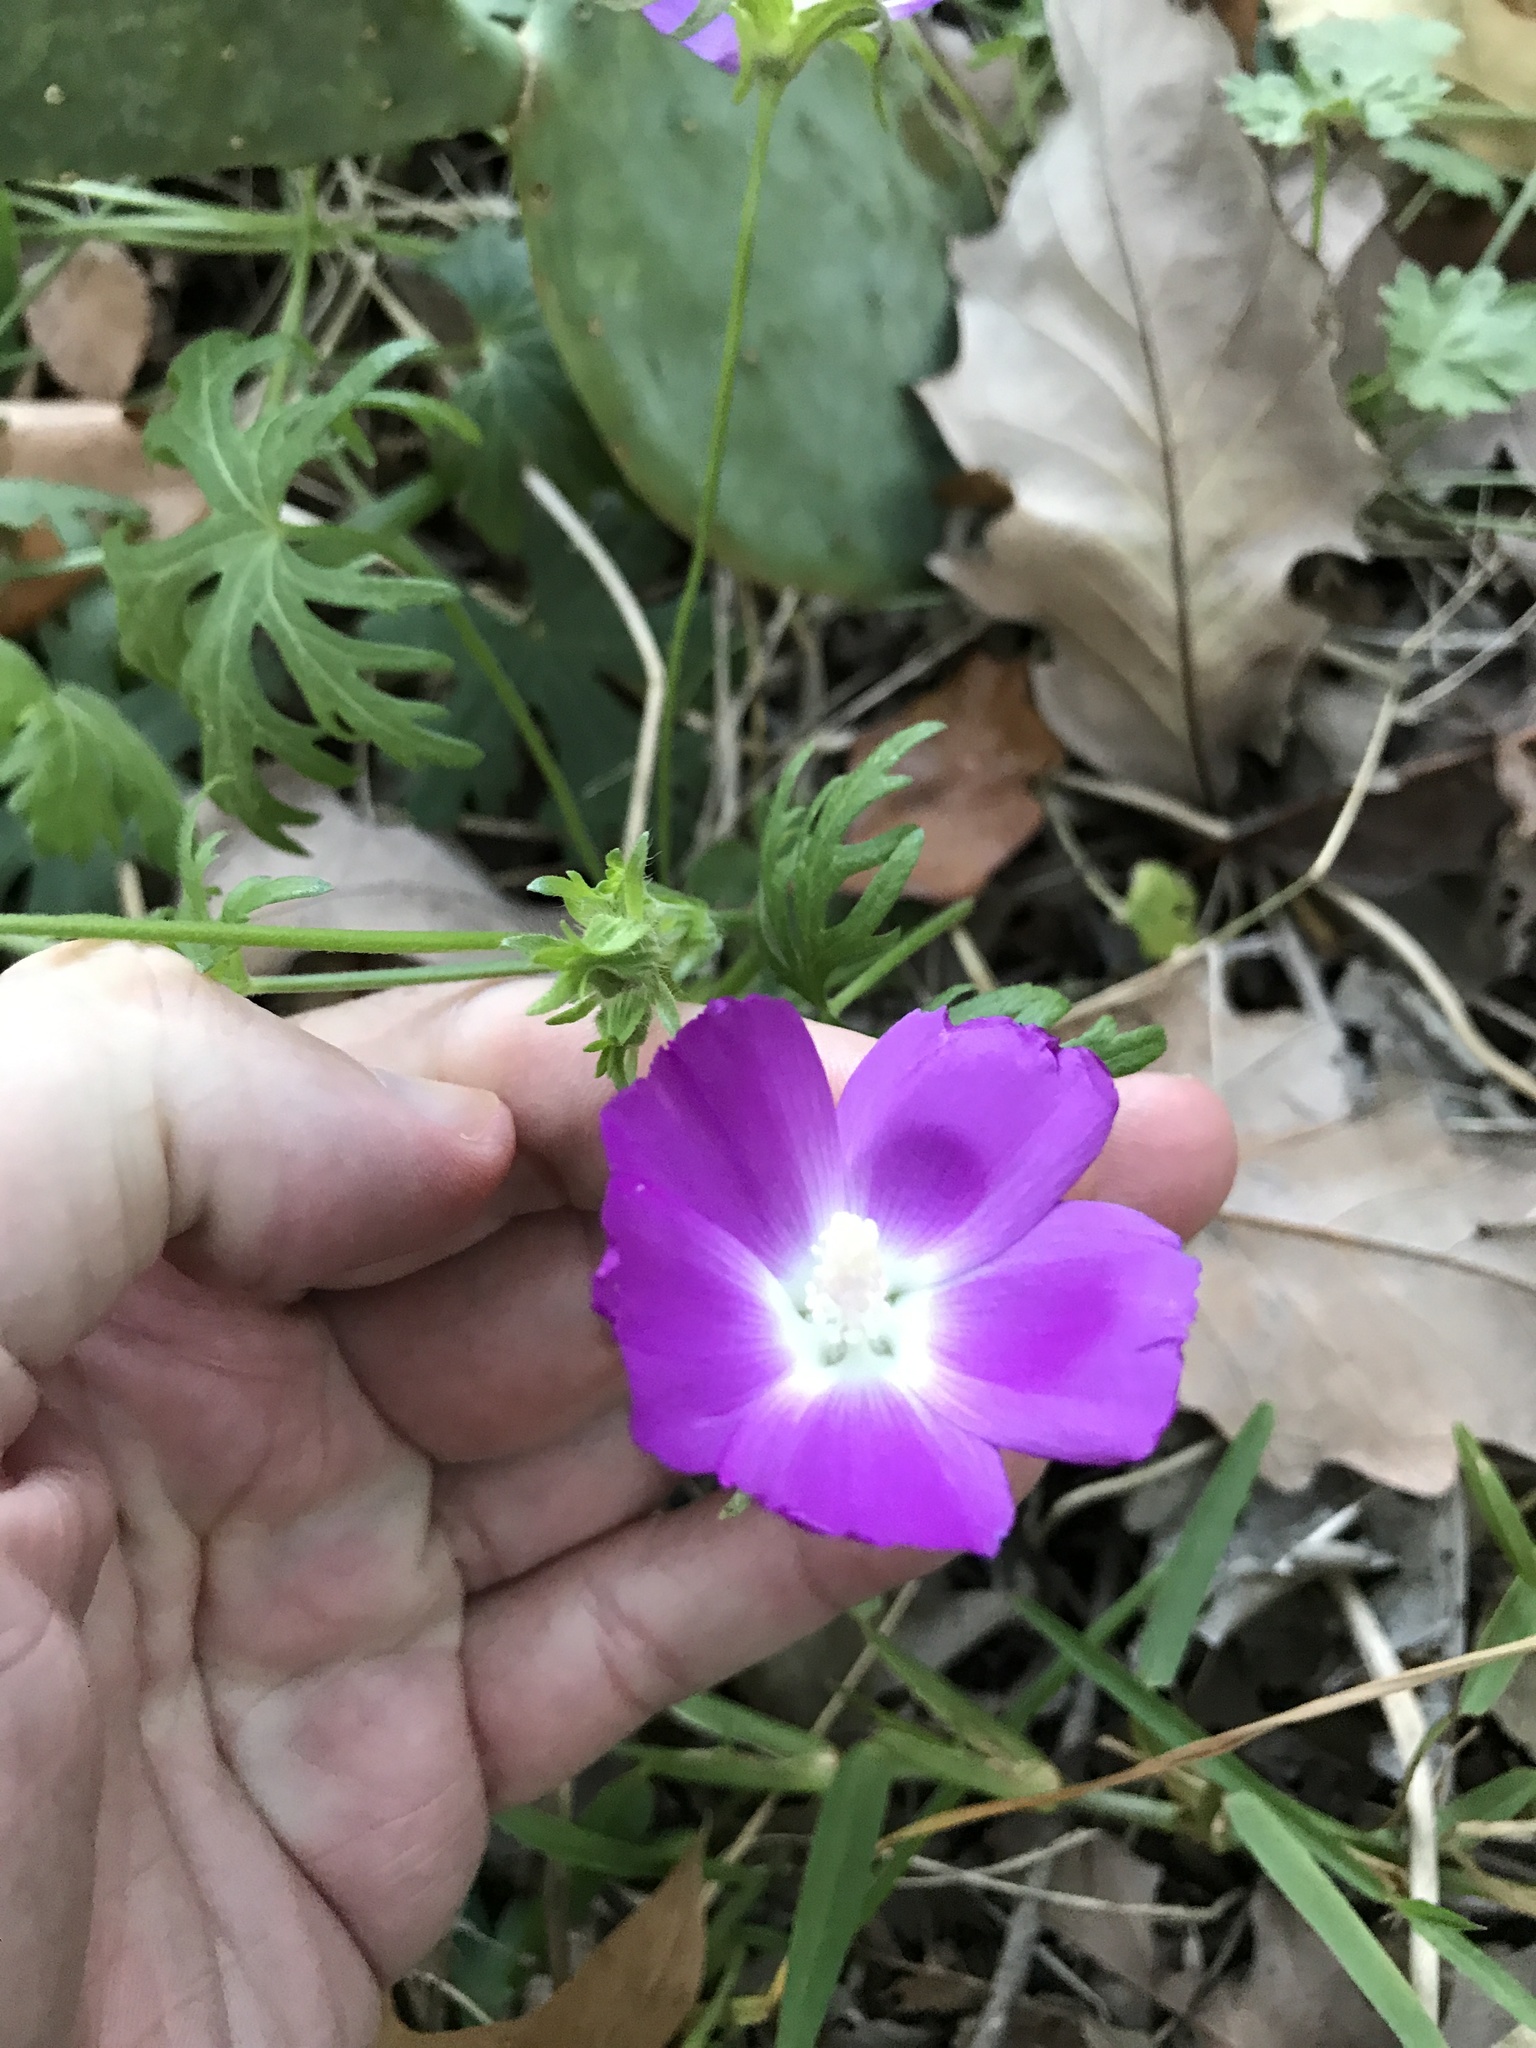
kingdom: Plantae
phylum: Tracheophyta
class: Magnoliopsida
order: Malvales
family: Malvaceae
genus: Callirhoe
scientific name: Callirhoe involucrata
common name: Purple poppy-mallow
